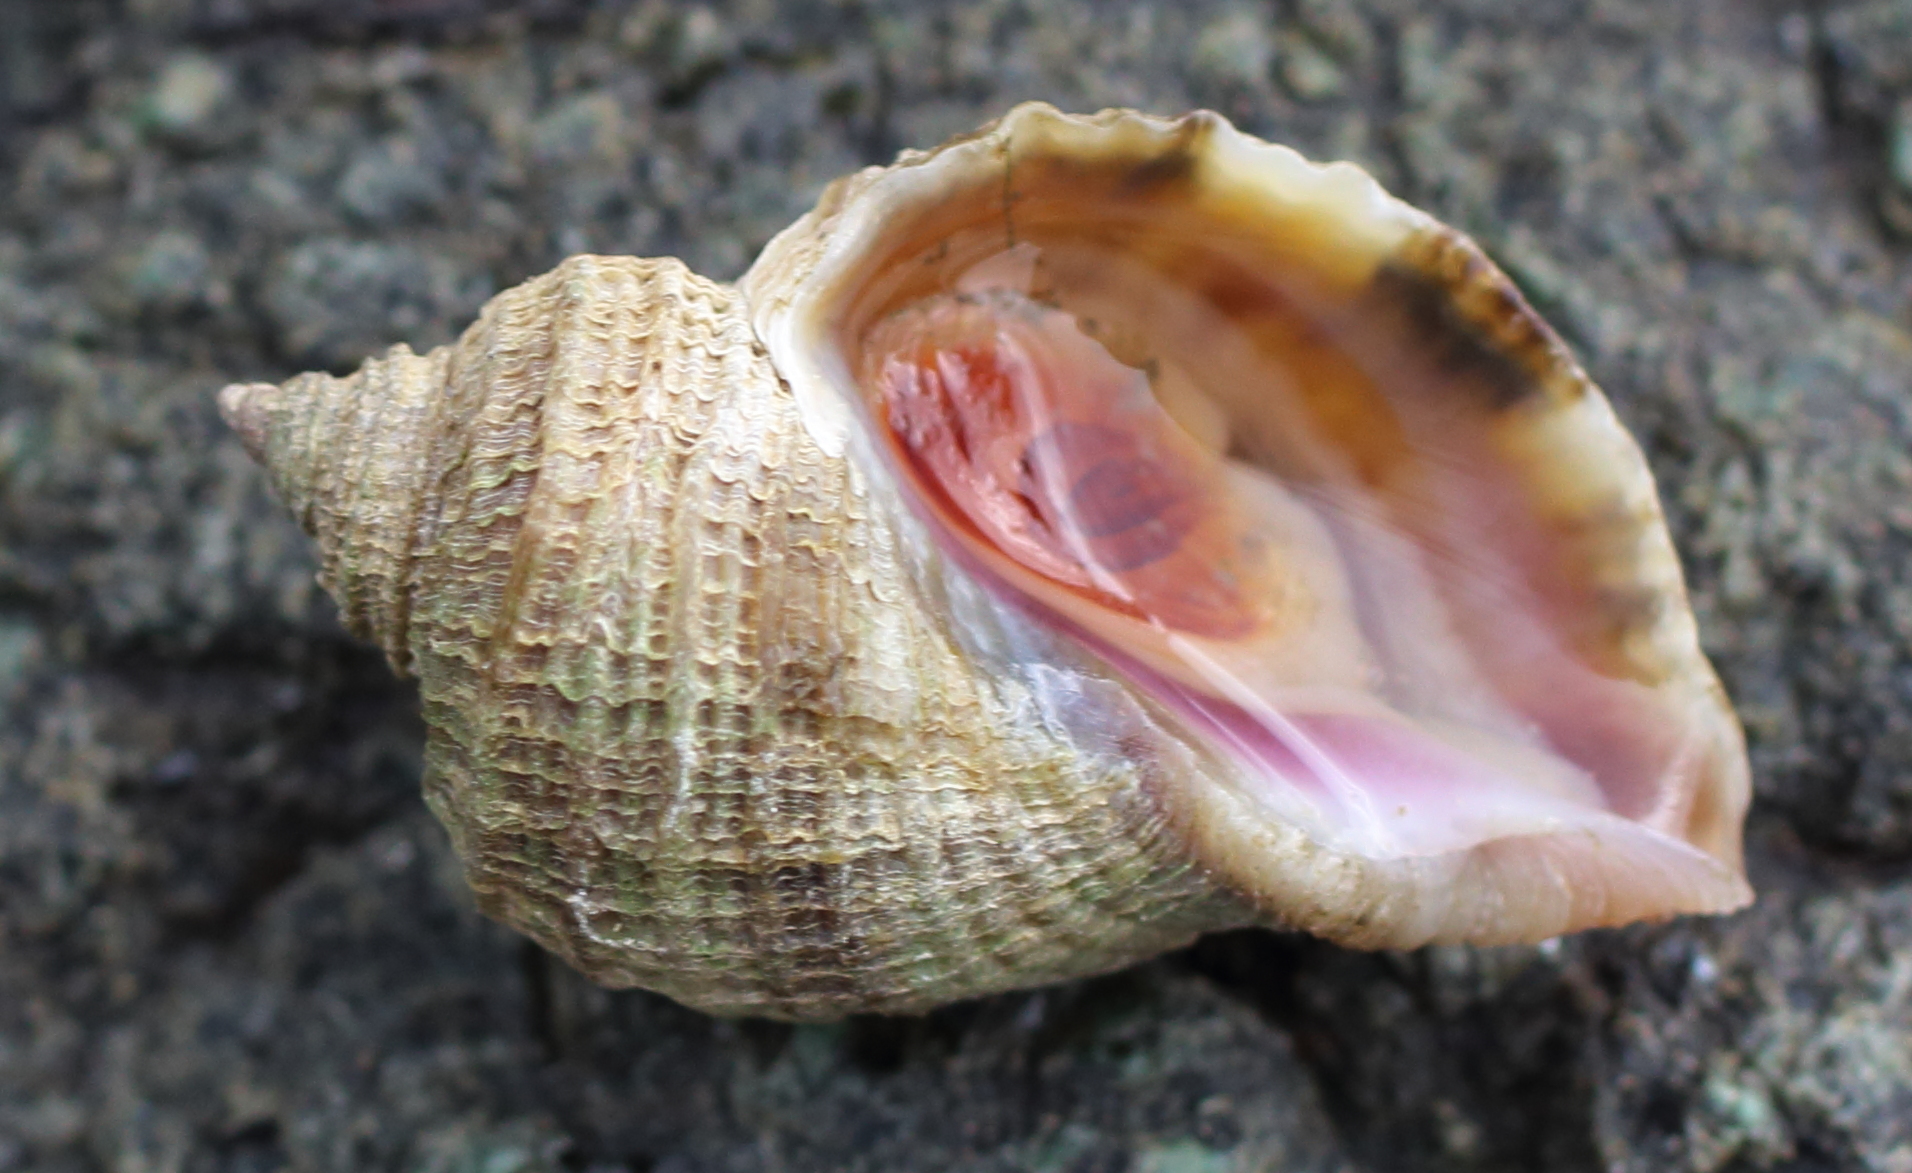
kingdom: Animalia
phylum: Mollusca
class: Gastropoda
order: Neogastropoda
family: Muricidae
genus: Nucella
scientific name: Nucella lima
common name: Rough purple
